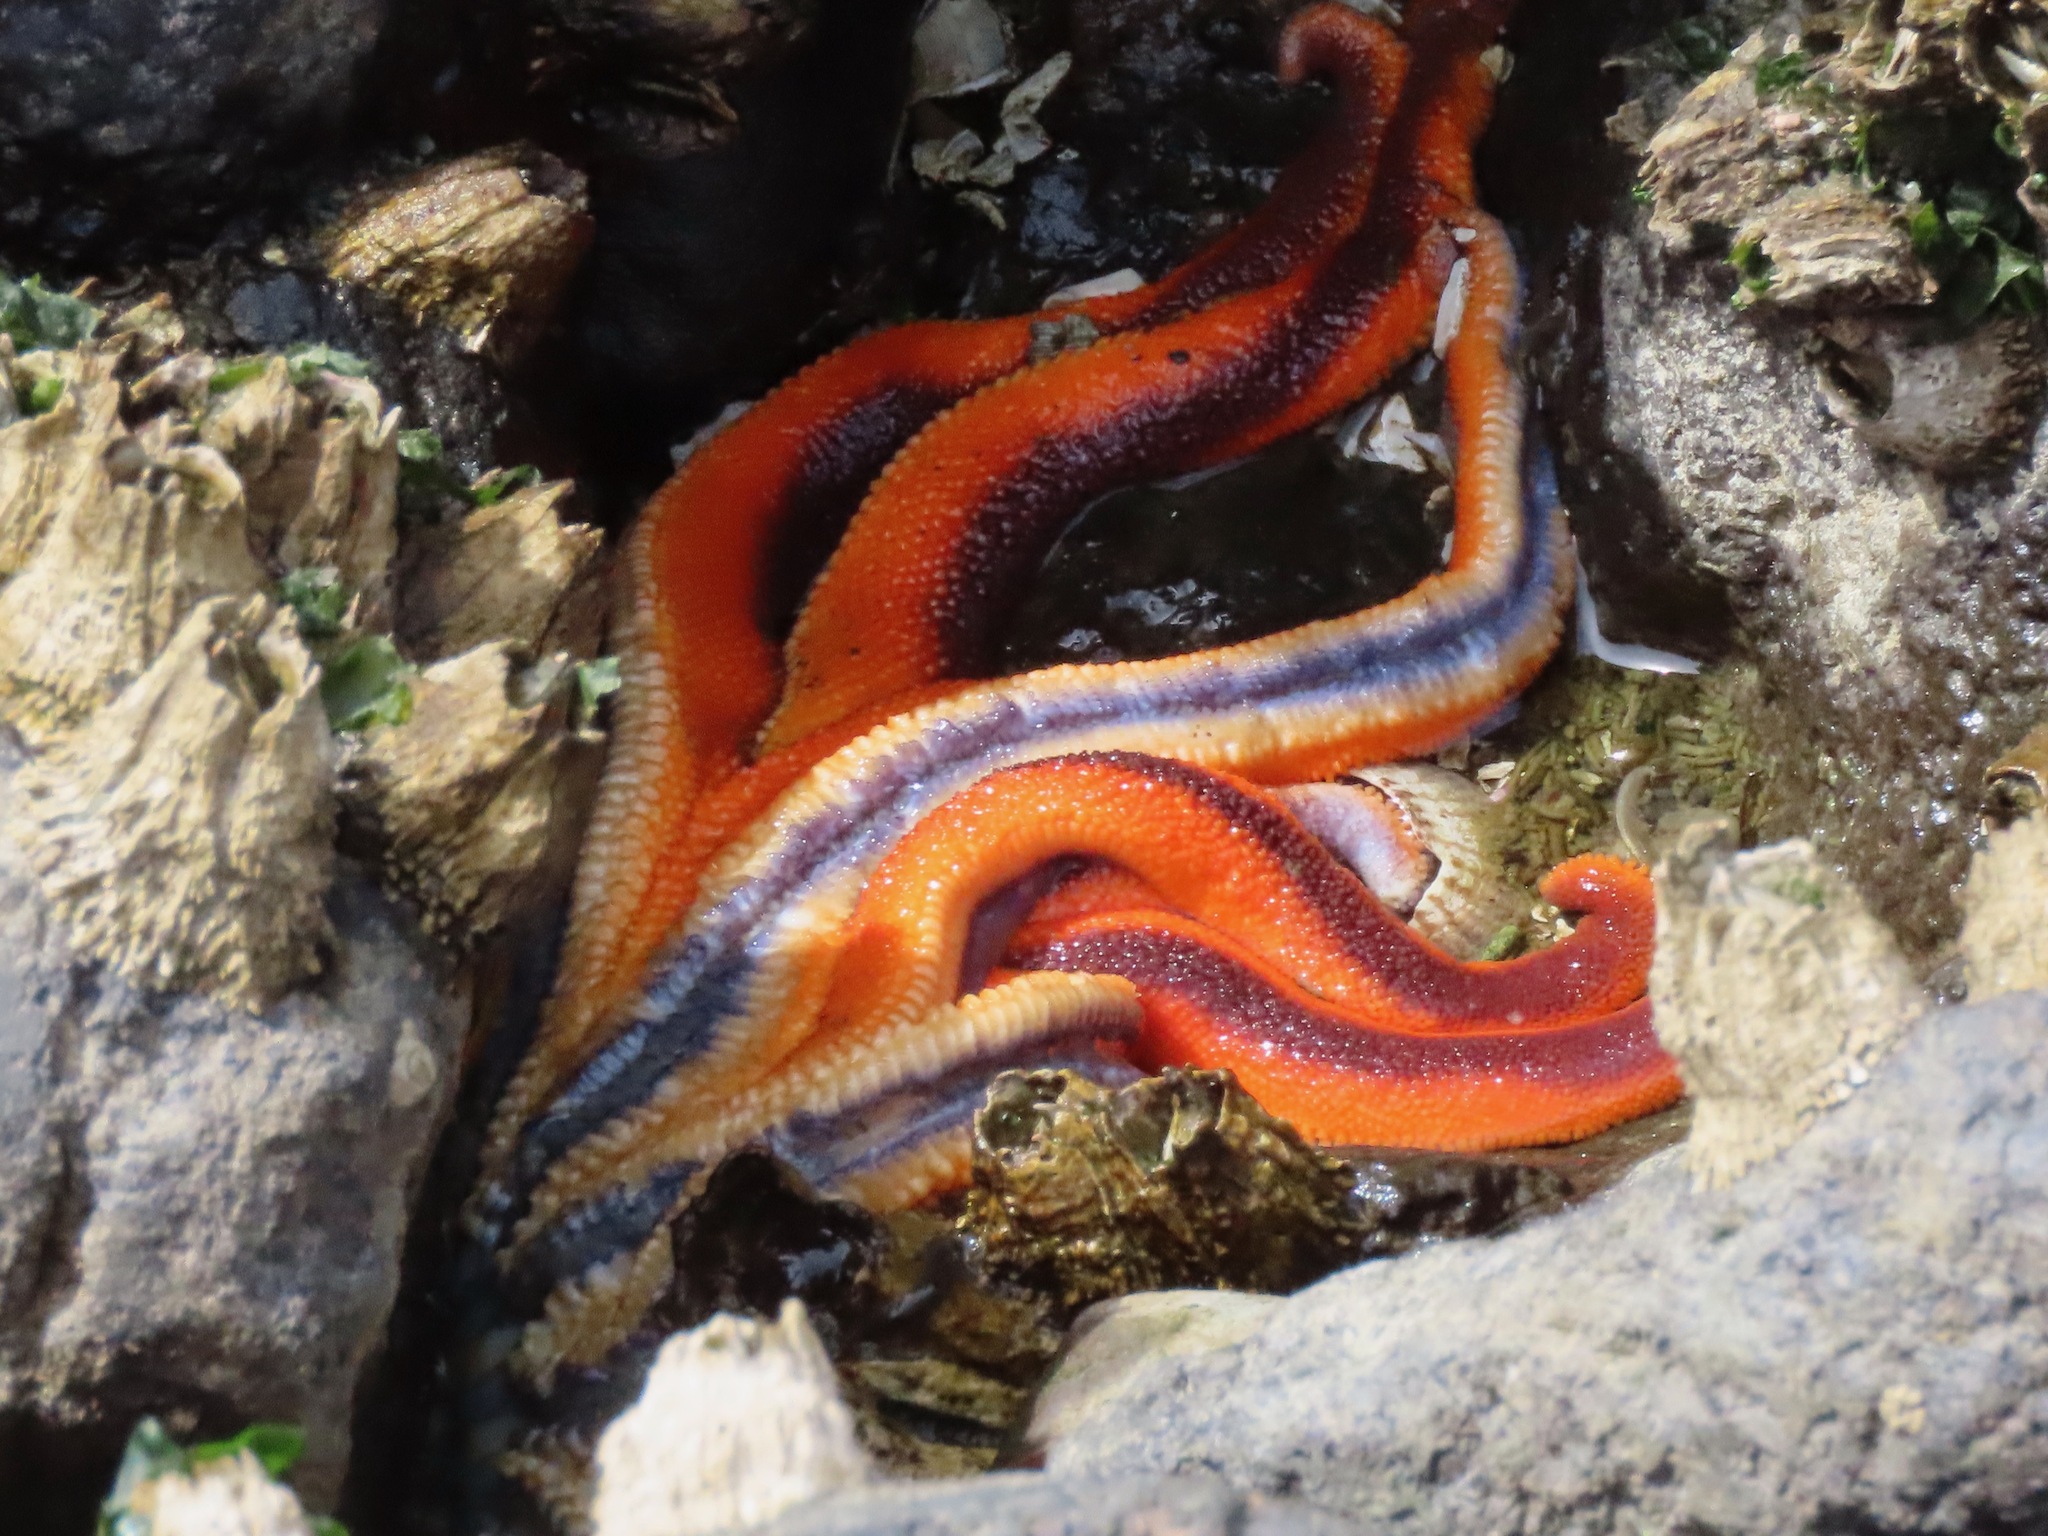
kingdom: Animalia
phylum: Echinodermata
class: Asteroidea
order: Valvatida
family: Solasteridae
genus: Solaster
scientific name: Solaster stimpsoni
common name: Orange sun star
